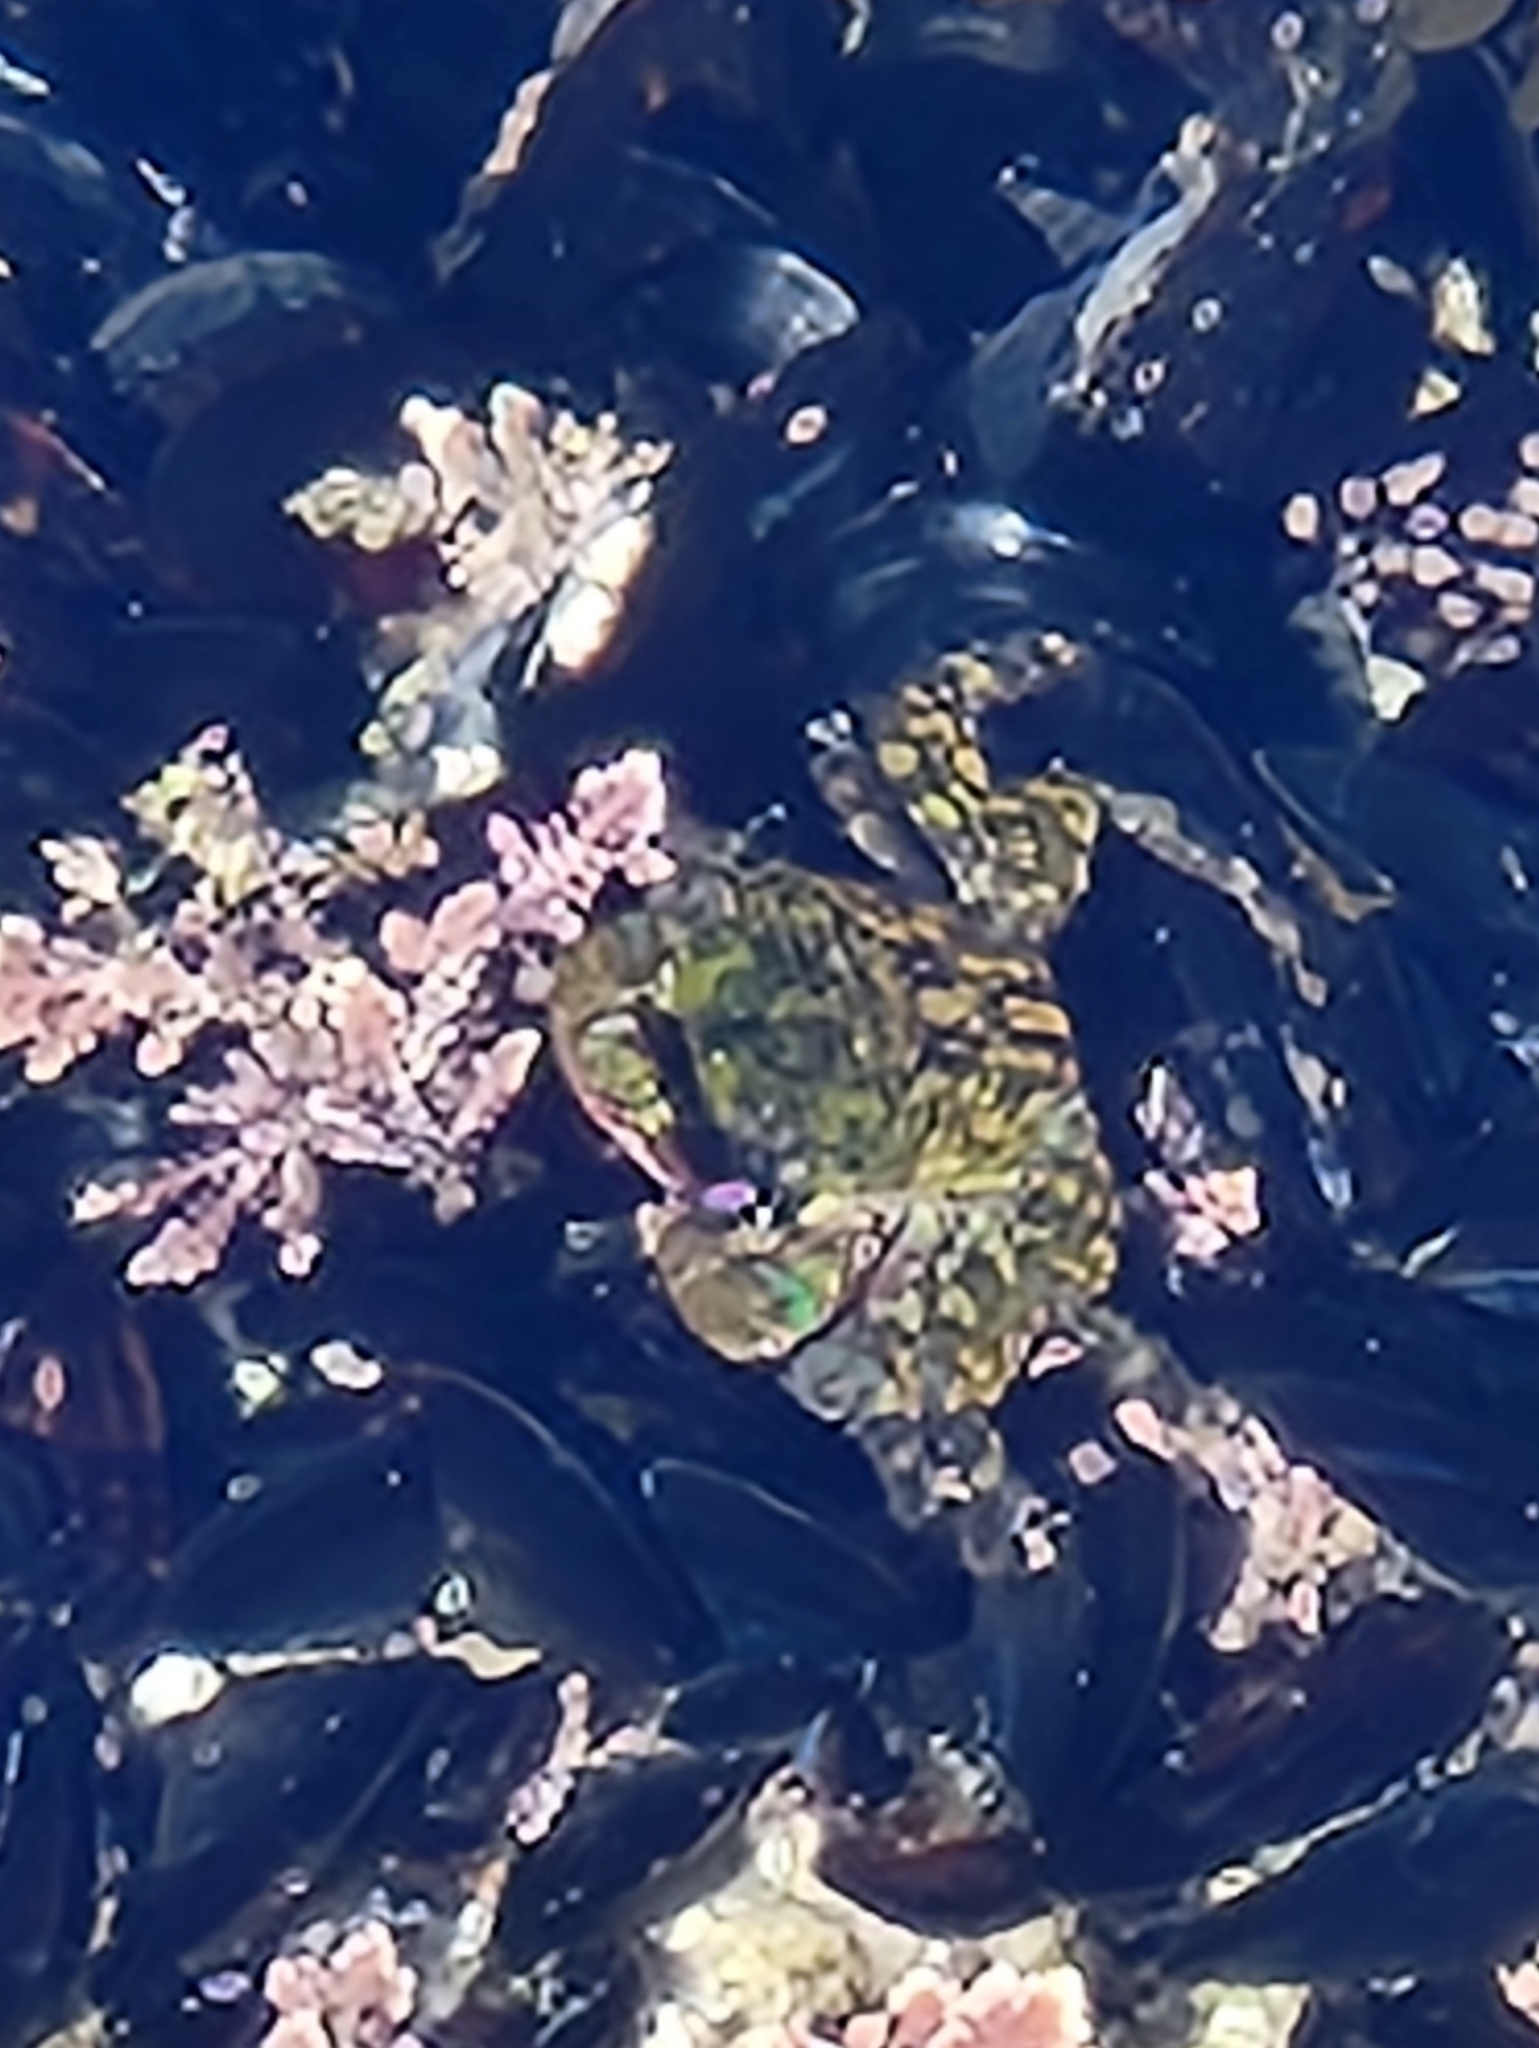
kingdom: Animalia
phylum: Arthropoda
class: Malacostraca
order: Decapoda
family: Grapsidae
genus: Pachygrapsus
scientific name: Pachygrapsus crassipes
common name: Striped shore crab
